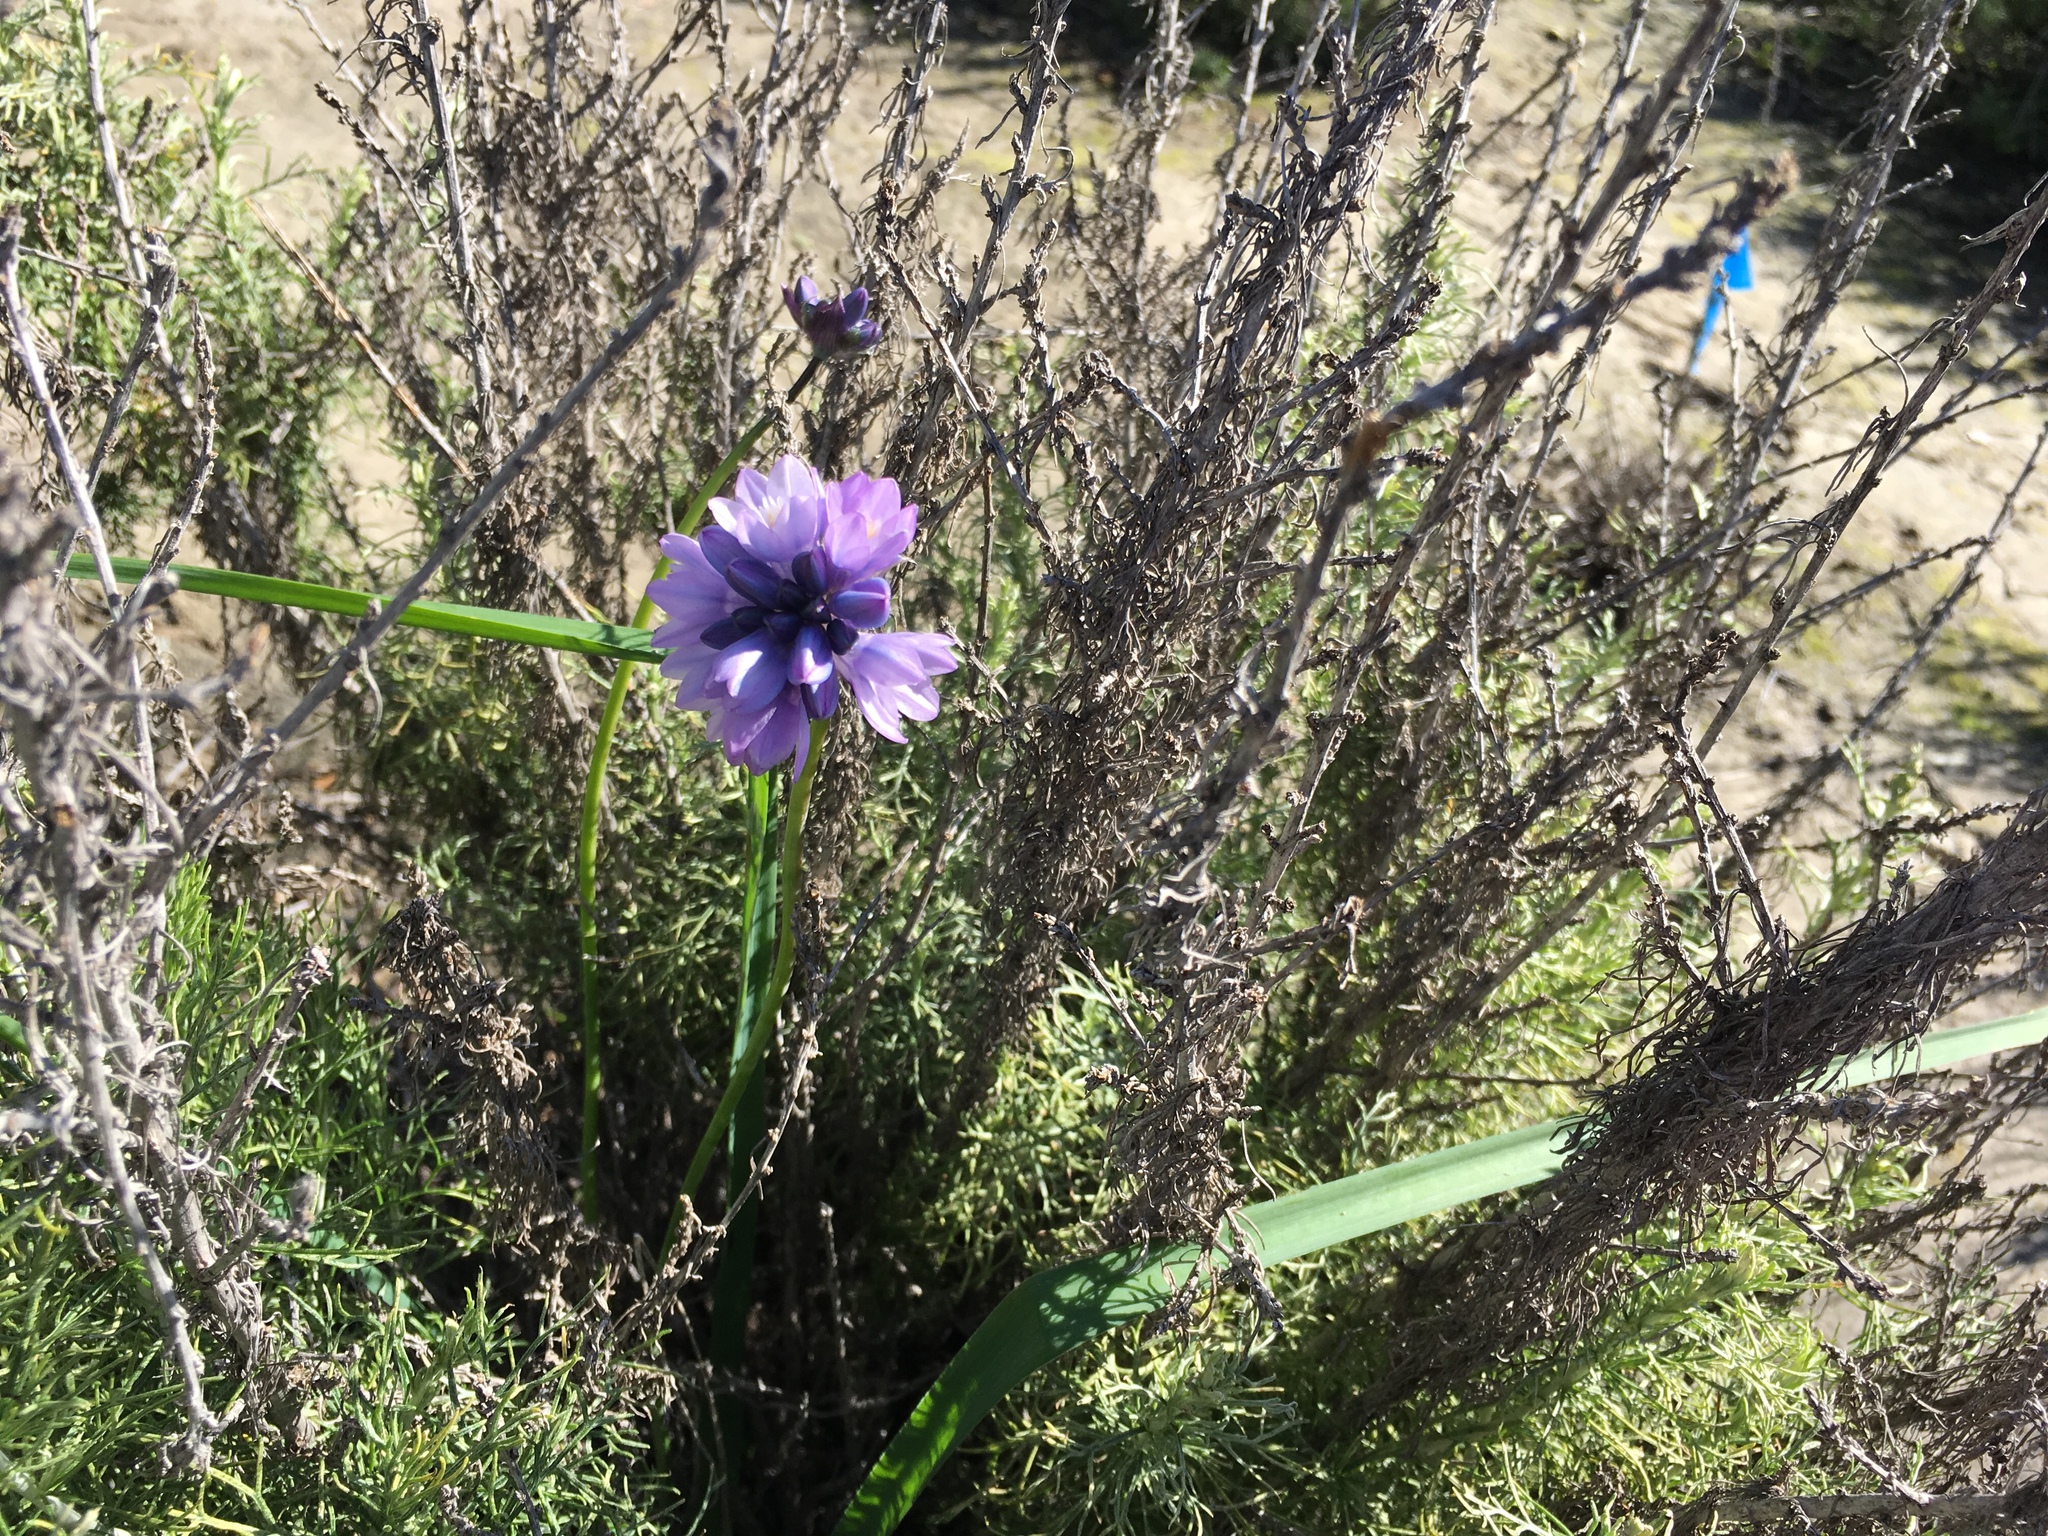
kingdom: Plantae
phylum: Tracheophyta
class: Liliopsida
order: Asparagales
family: Asparagaceae
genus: Dipterostemon
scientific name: Dipterostemon capitatus
